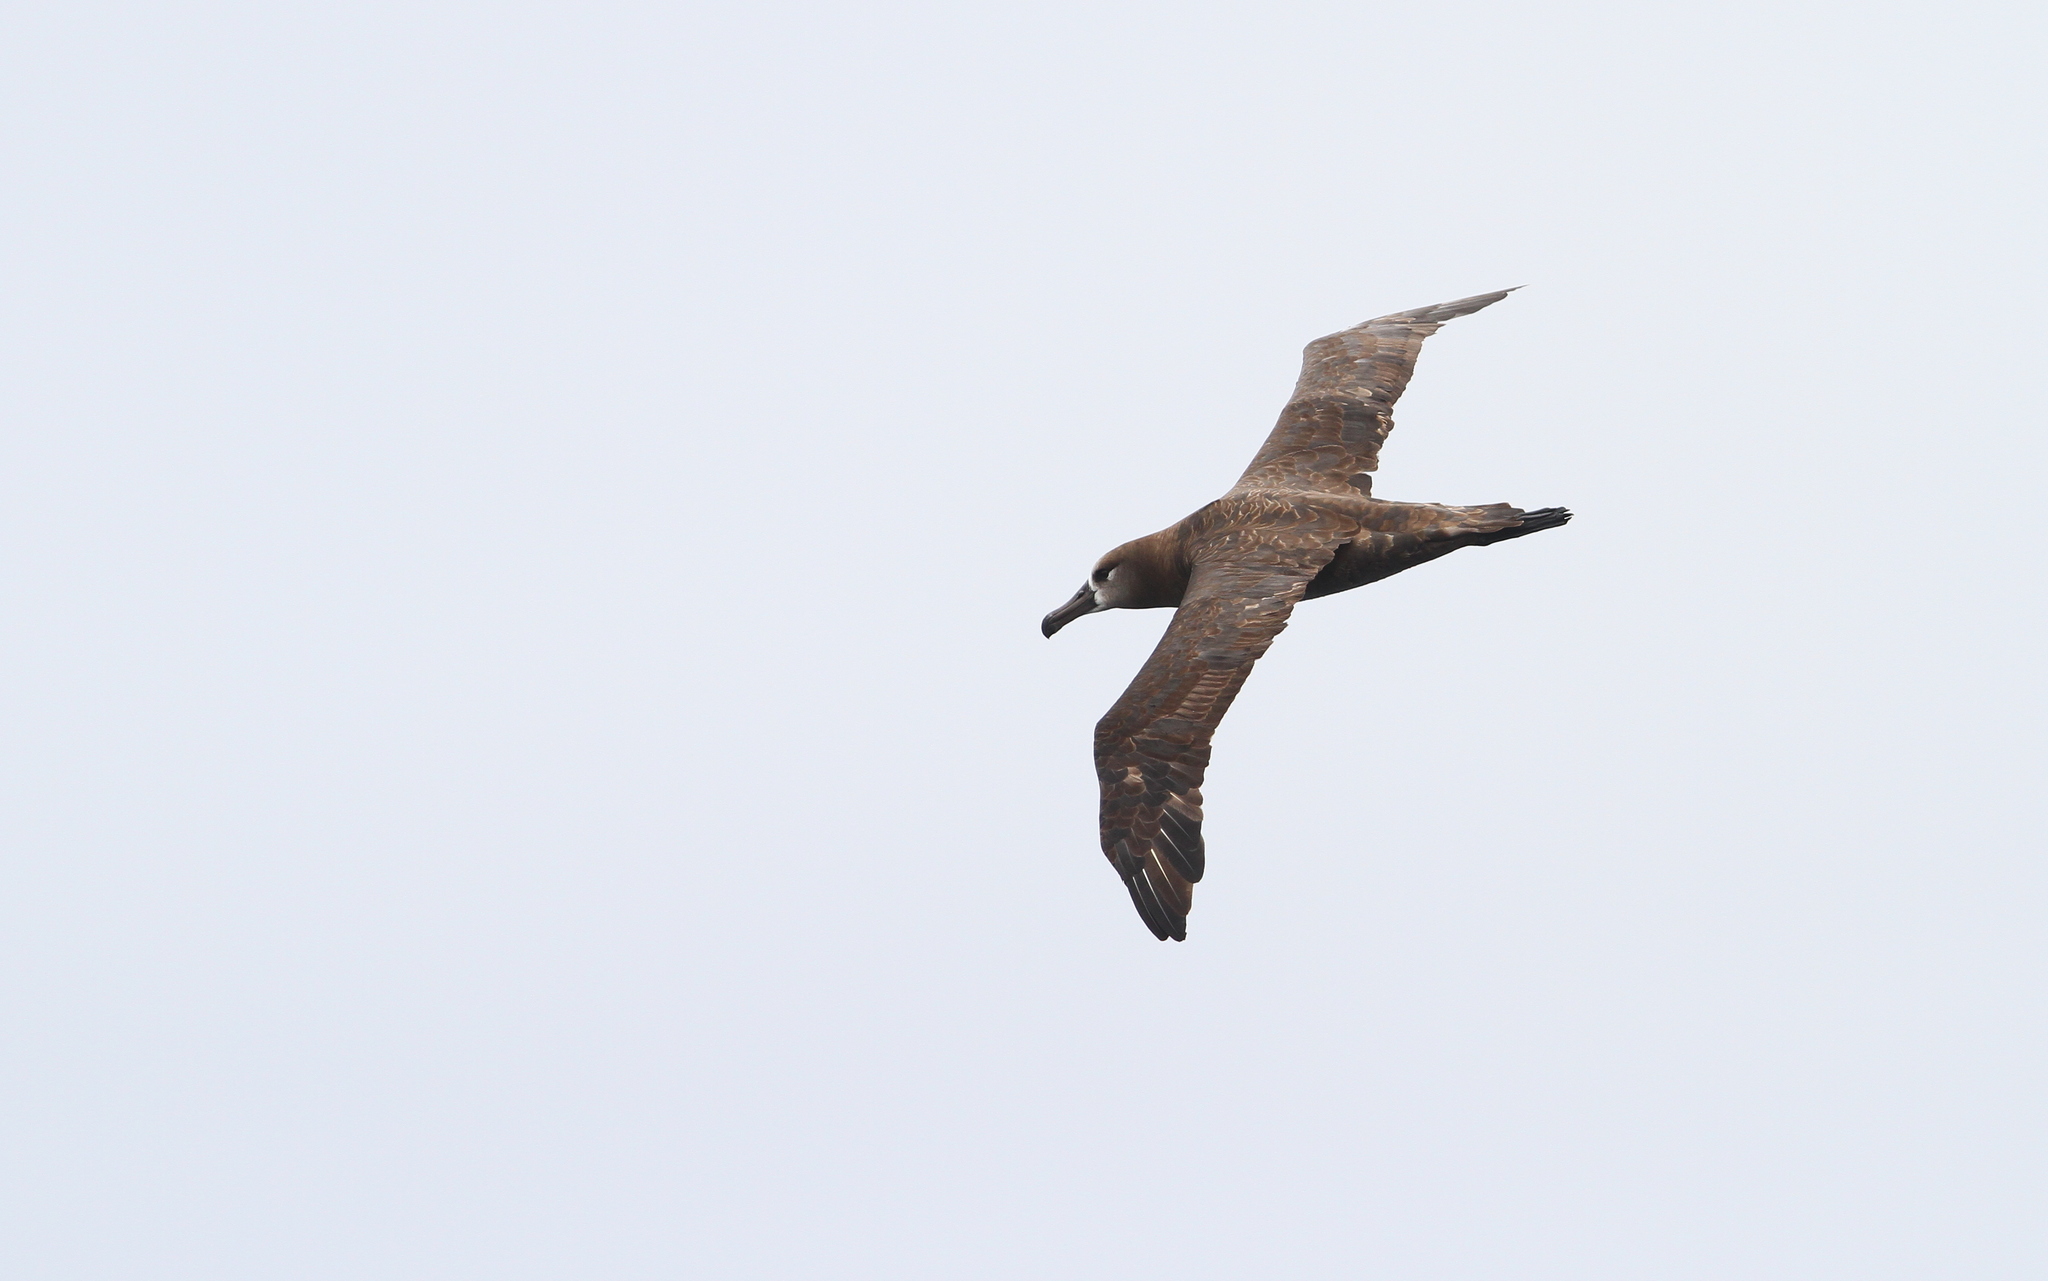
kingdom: Animalia
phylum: Chordata
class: Aves
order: Procellariiformes
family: Diomedeidae
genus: Phoebastria
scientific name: Phoebastria nigripes
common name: Black-footed albatross
